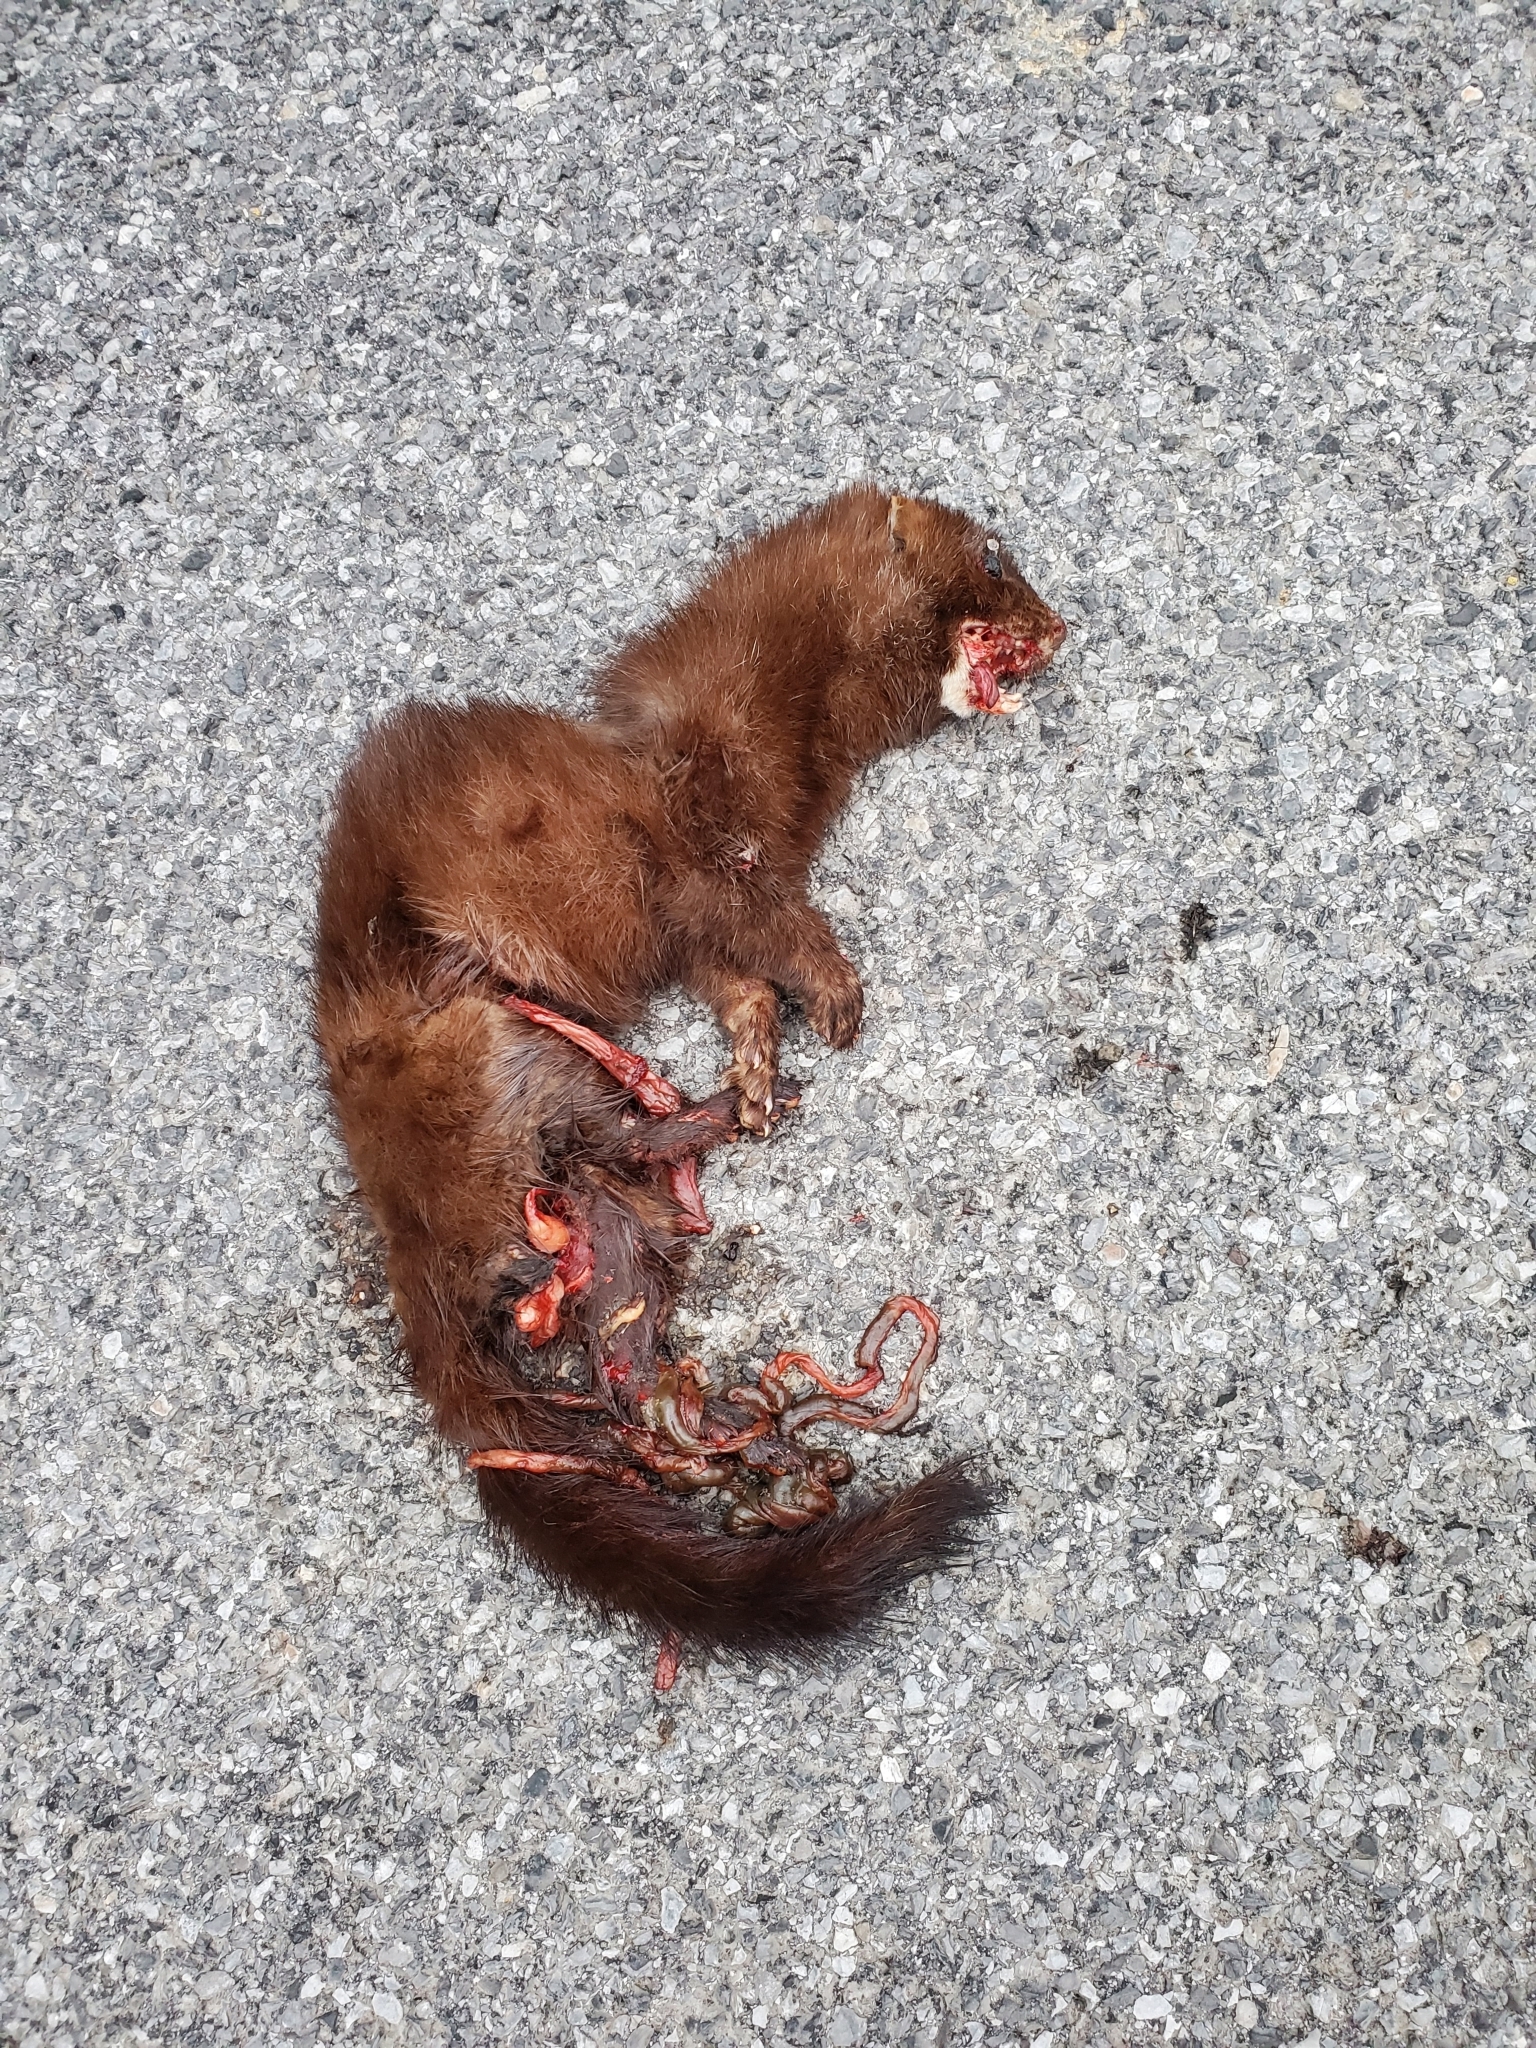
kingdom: Animalia
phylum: Chordata
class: Mammalia
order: Carnivora
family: Mustelidae
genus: Mustela
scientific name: Mustela
